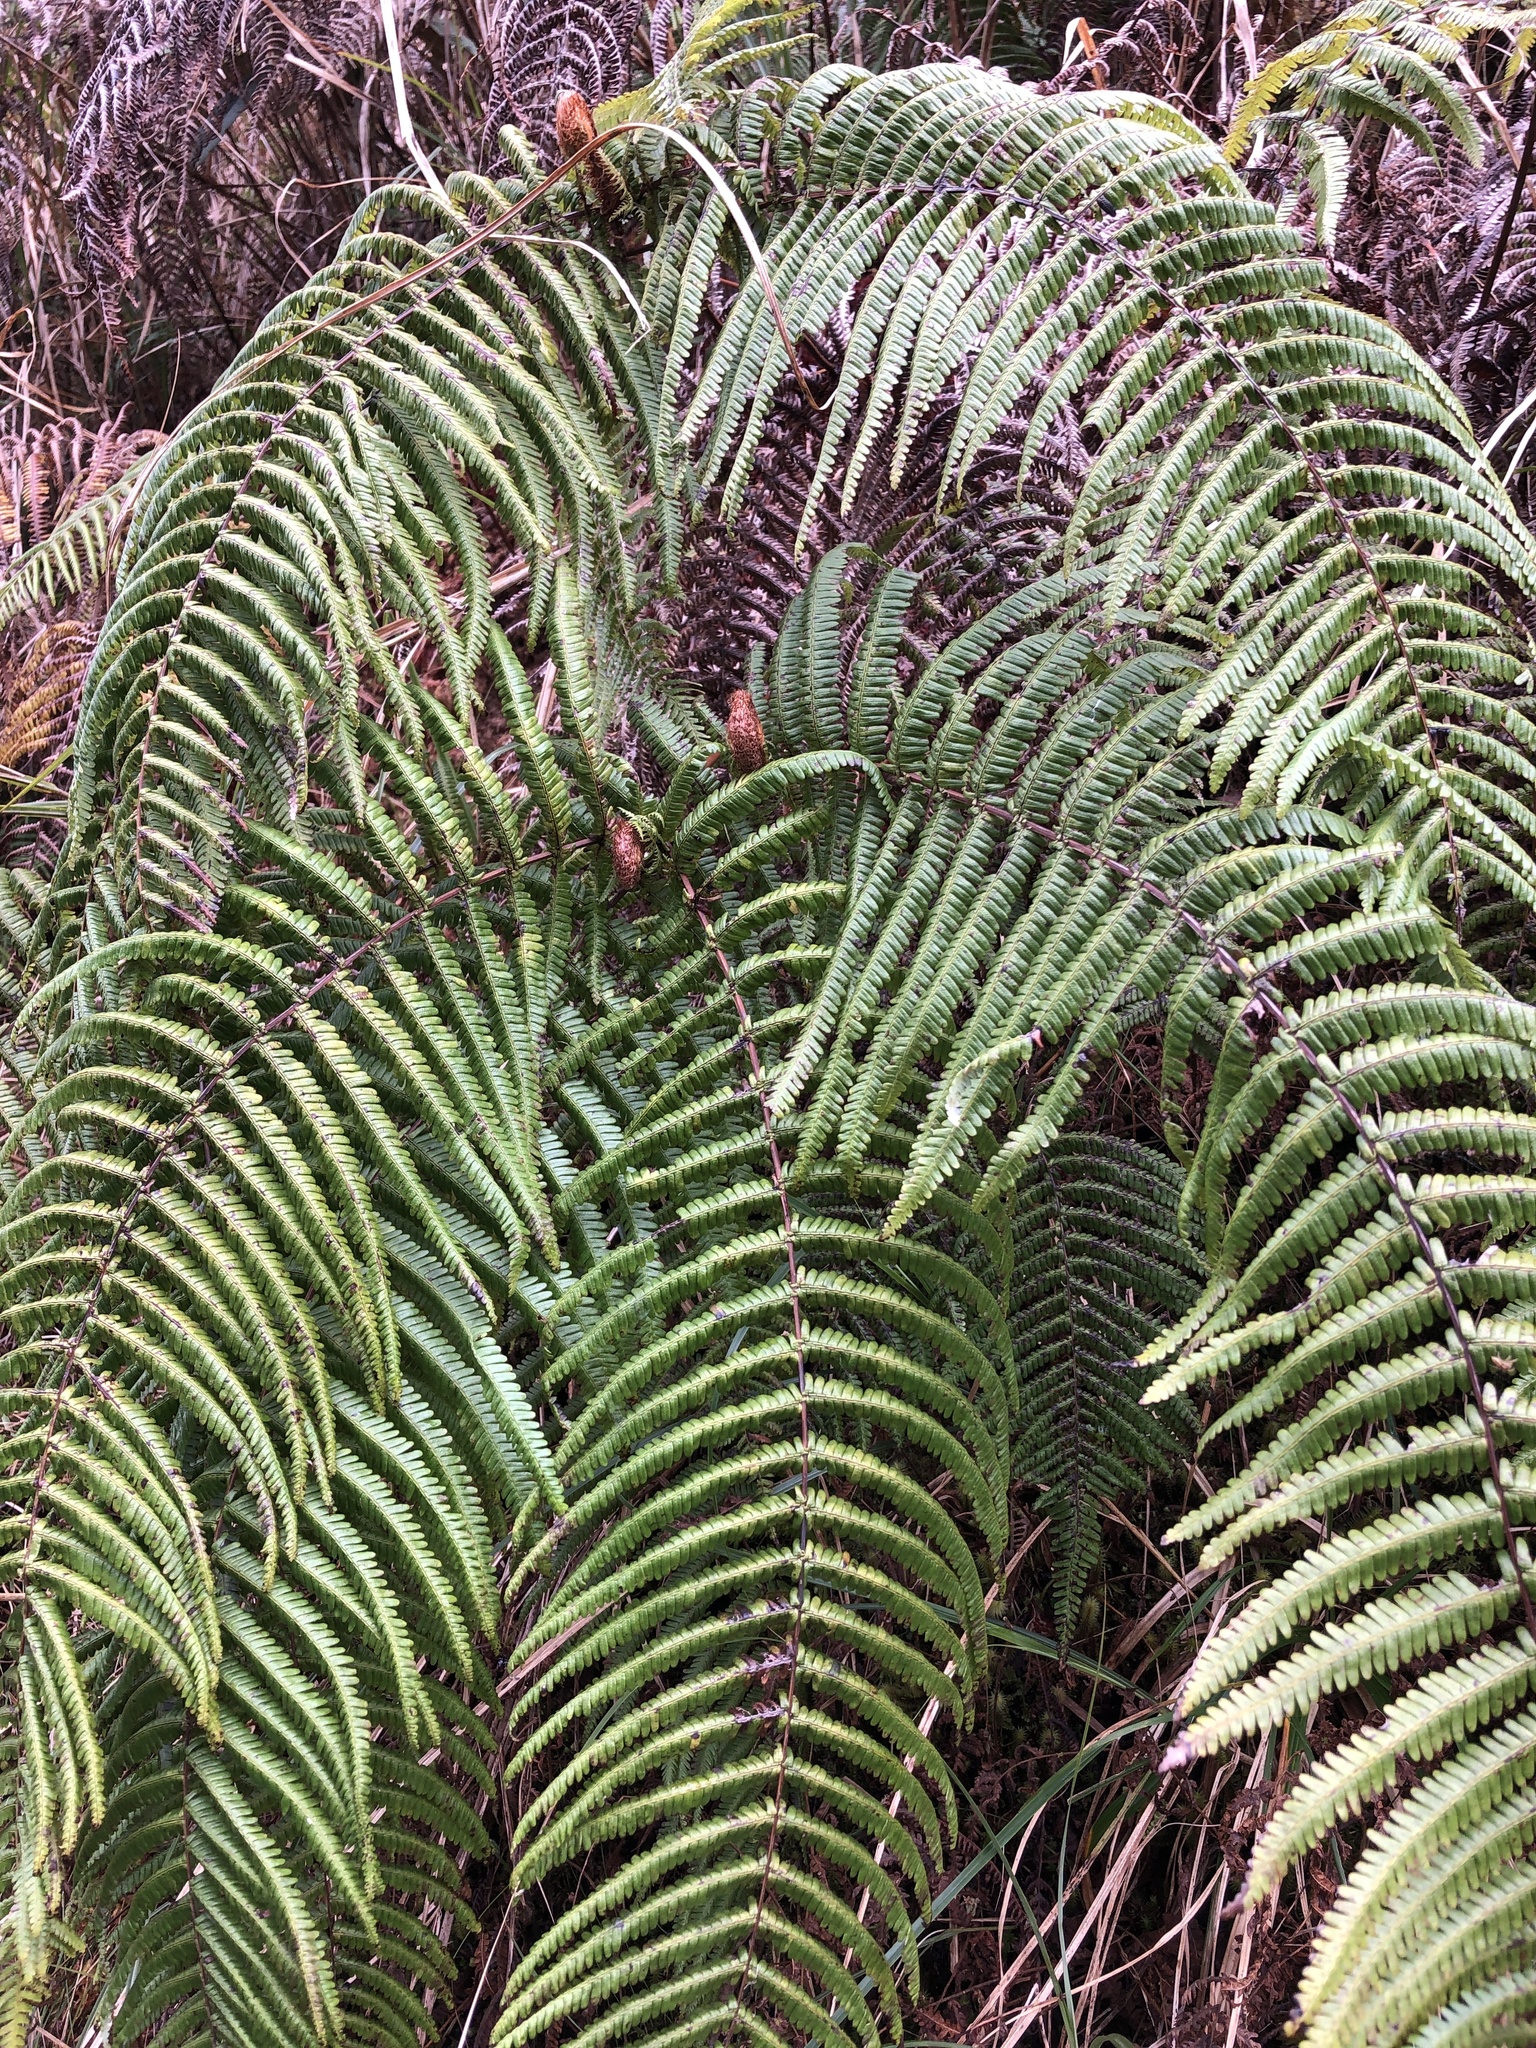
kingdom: Plantae
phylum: Tracheophyta
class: Polypodiopsida
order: Gleicheniales
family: Gleicheniaceae
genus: Diplopterygium
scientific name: Diplopterygium glaucum
